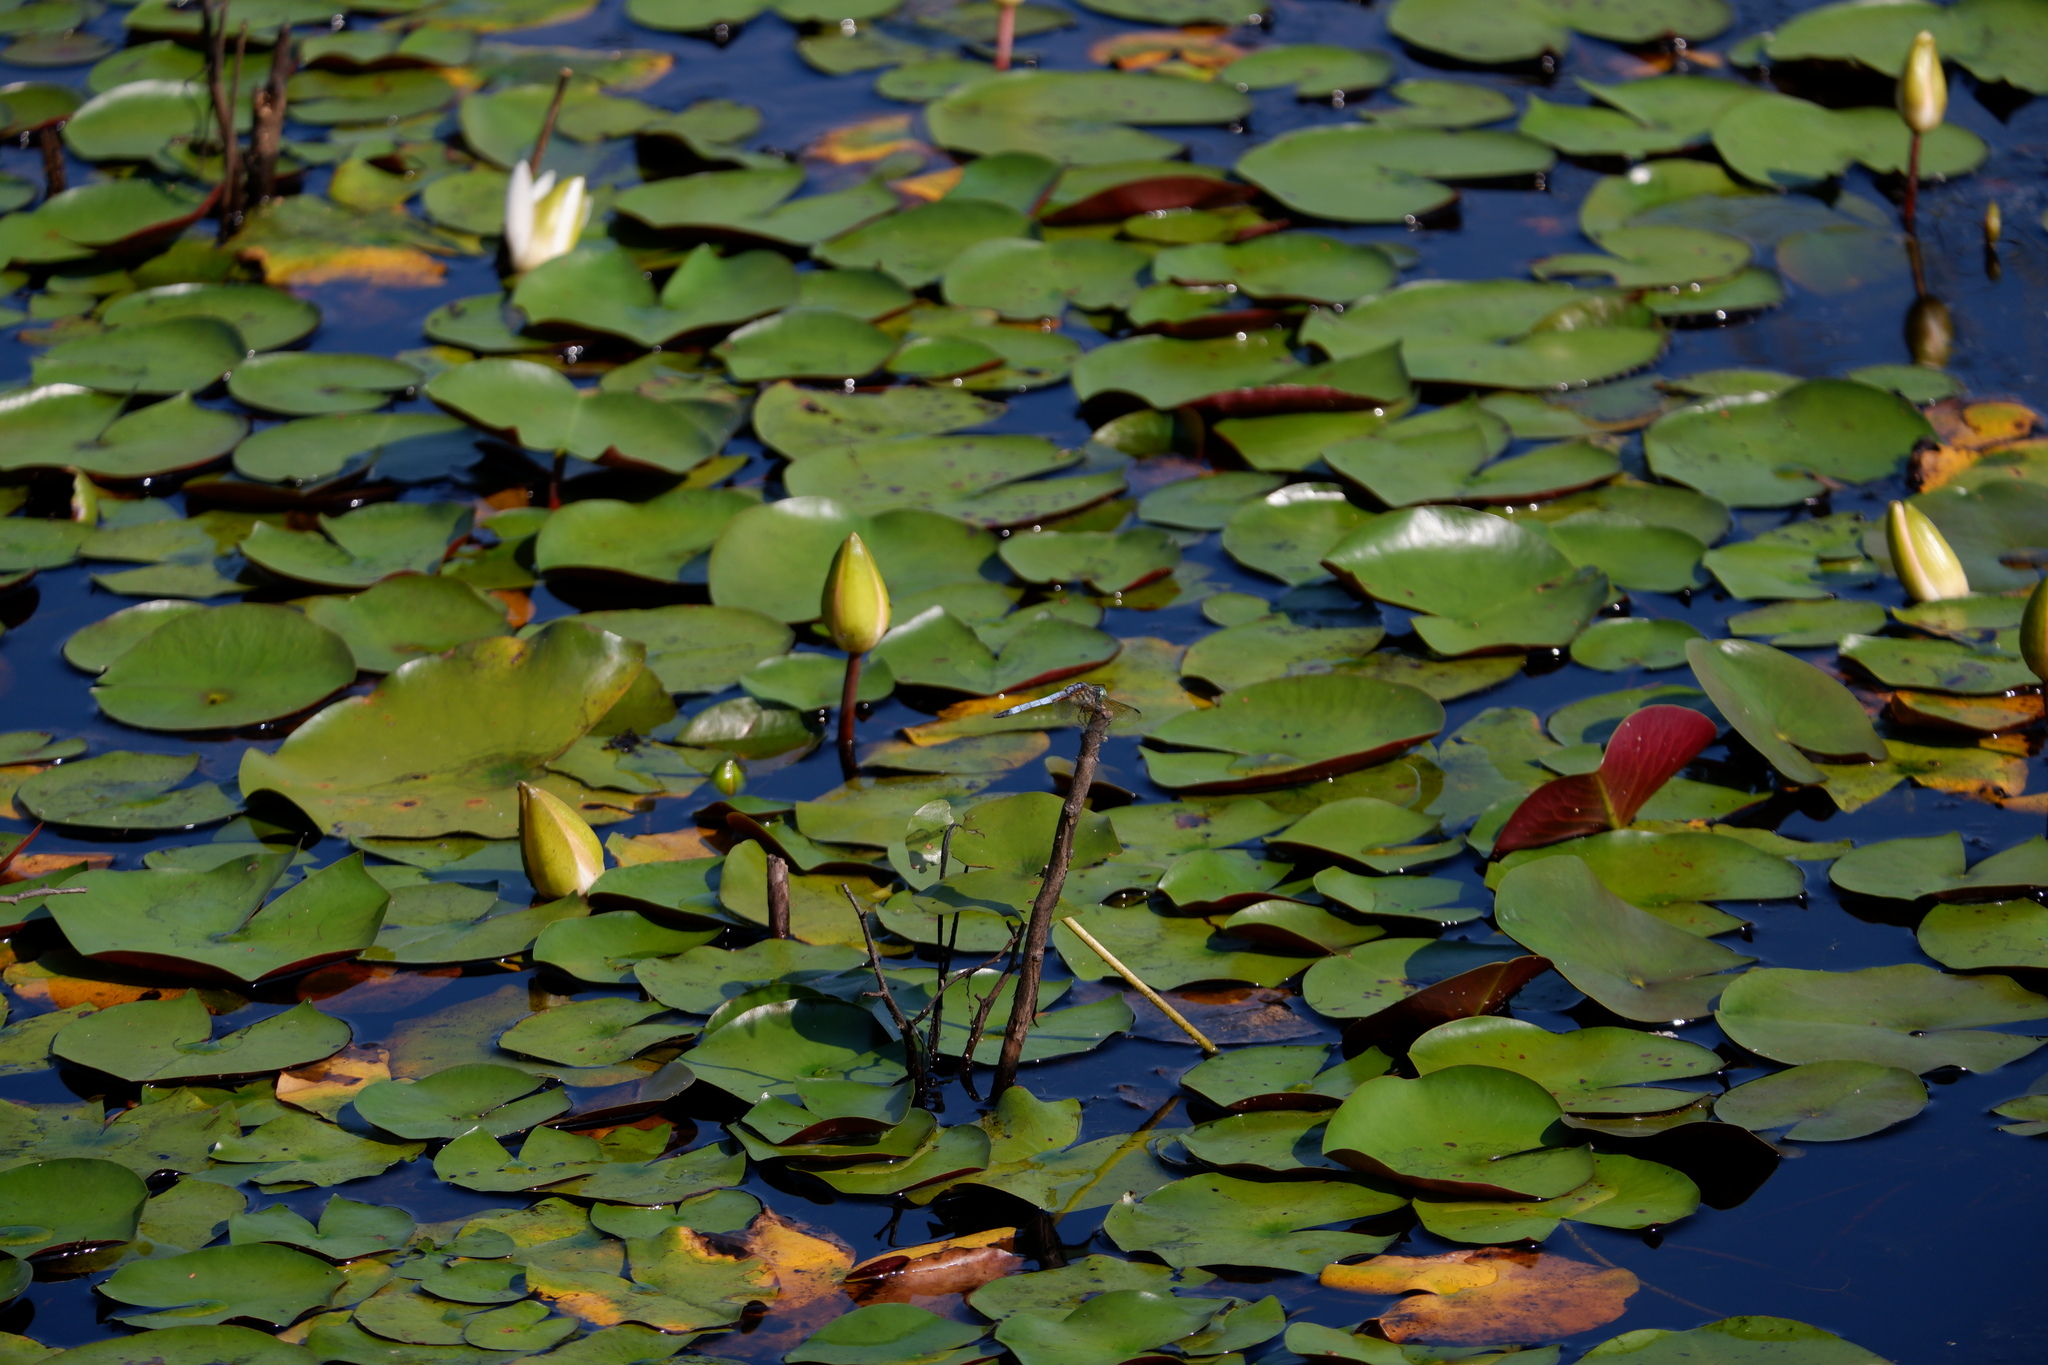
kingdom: Animalia
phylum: Arthropoda
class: Insecta
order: Odonata
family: Libellulidae
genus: Pachydiplax
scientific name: Pachydiplax longipennis
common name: Blue dasher
